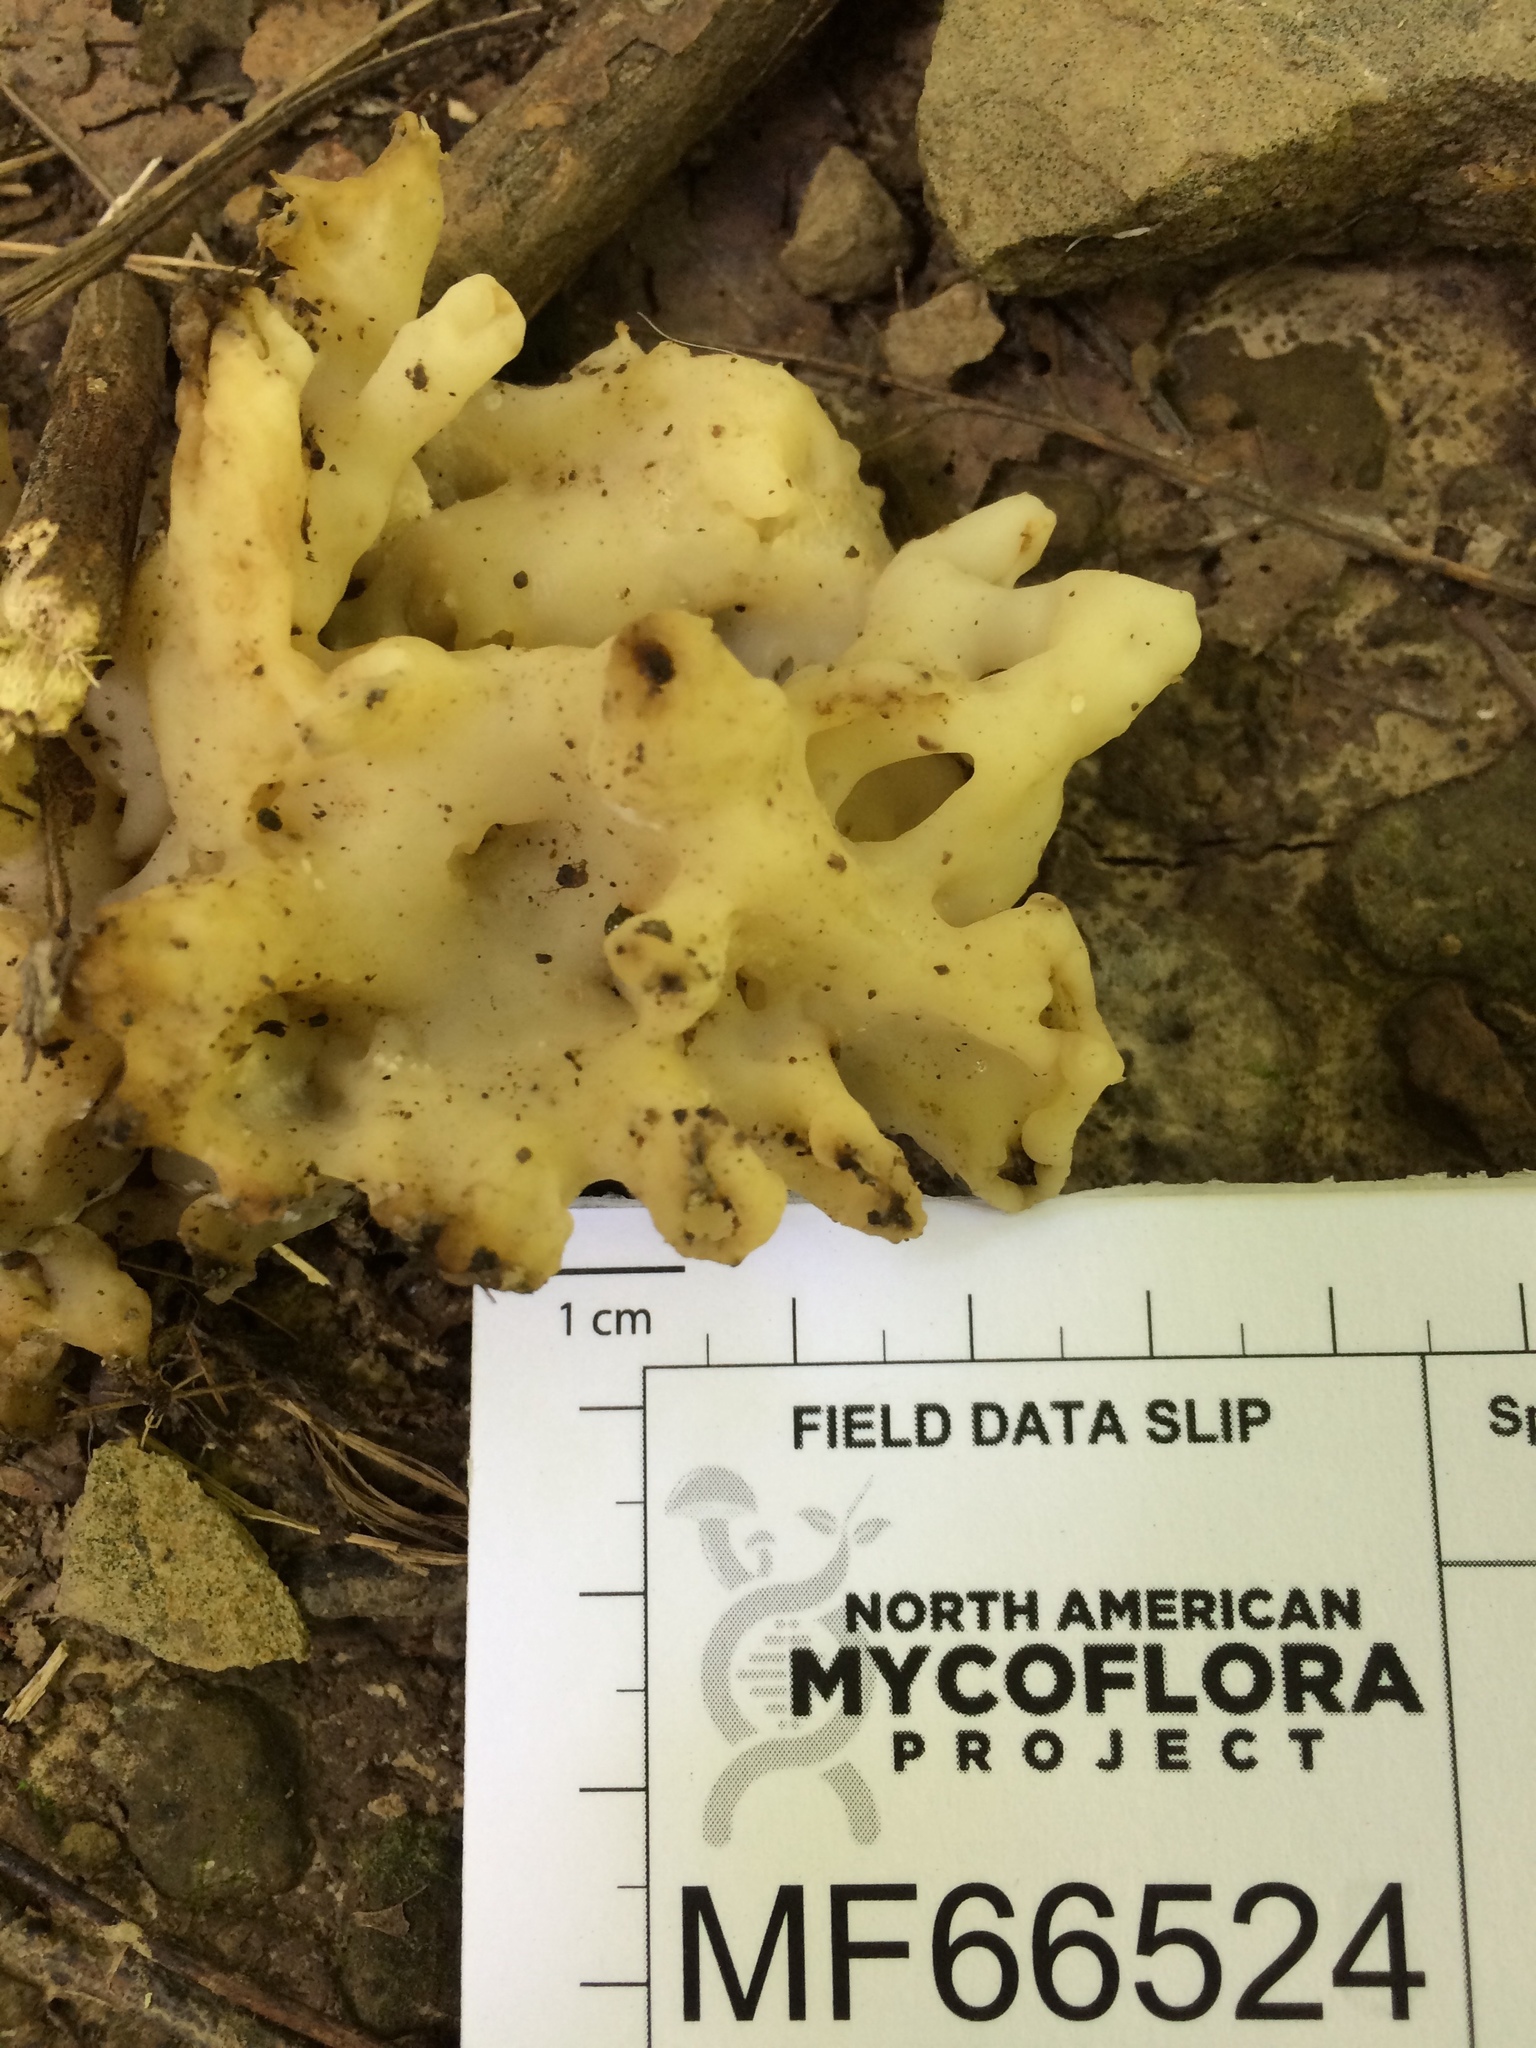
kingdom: Fungi
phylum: Basidiomycota
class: Agaricomycetes
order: Sebacinales
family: Sebacinaceae
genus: Sebacina
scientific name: Sebacina sparassoidea
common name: White coral jelly fungus
